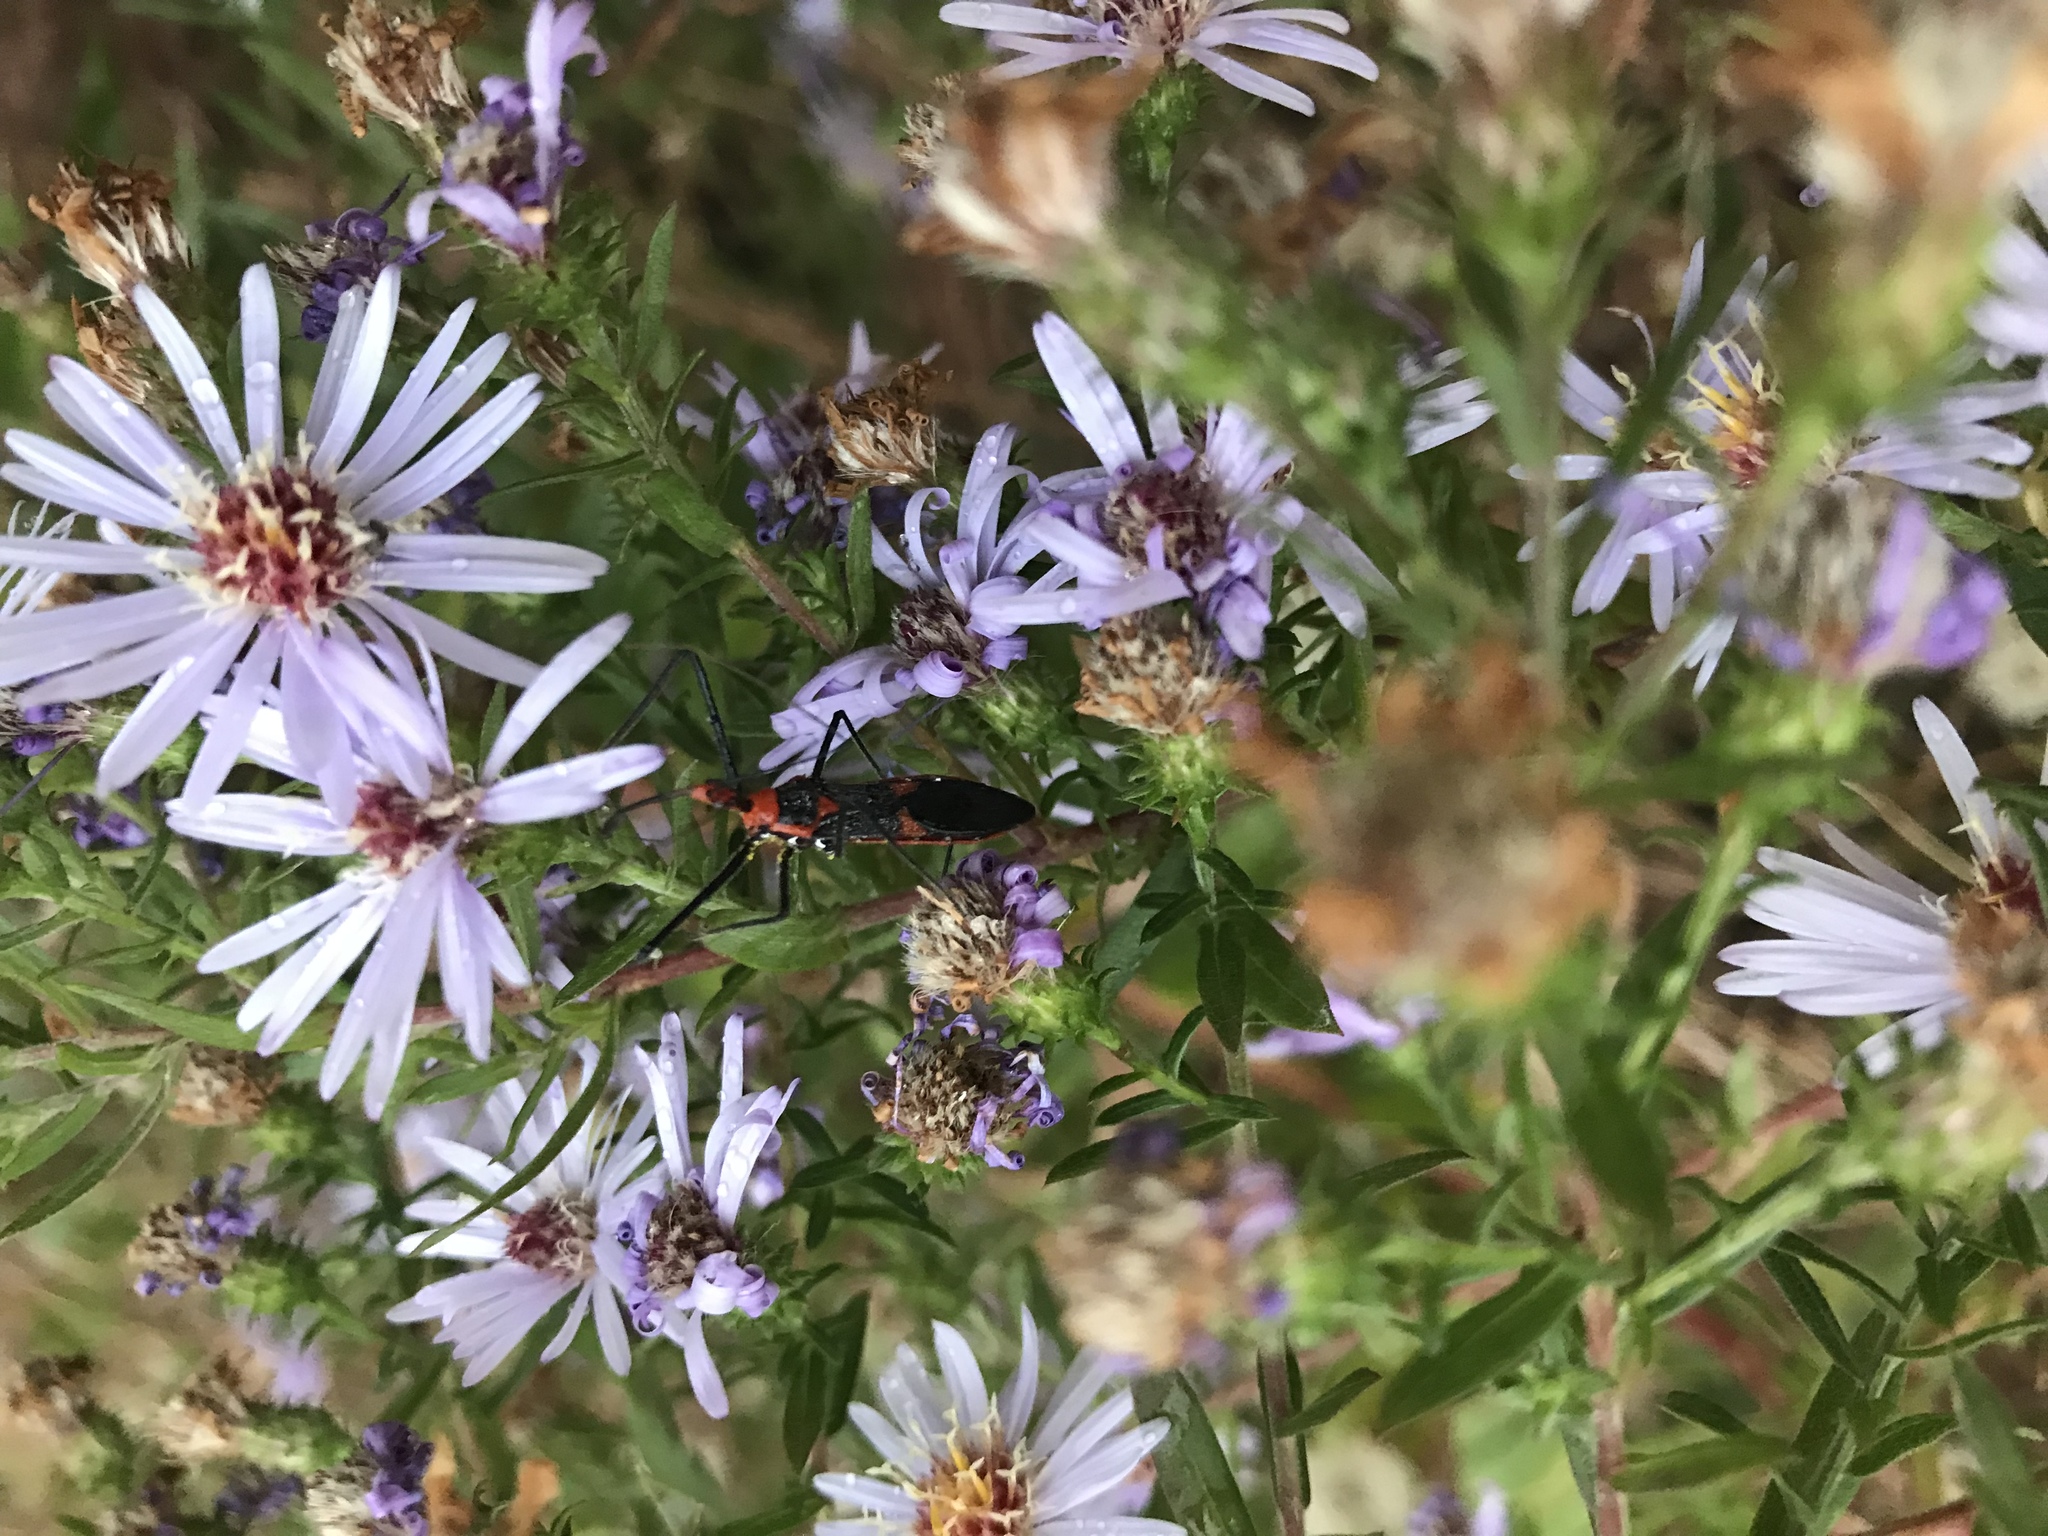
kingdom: Animalia
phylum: Arthropoda
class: Insecta
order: Hemiptera
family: Reduviidae
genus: Zelus
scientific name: Zelus longipes
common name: Milkweed assassin bug
